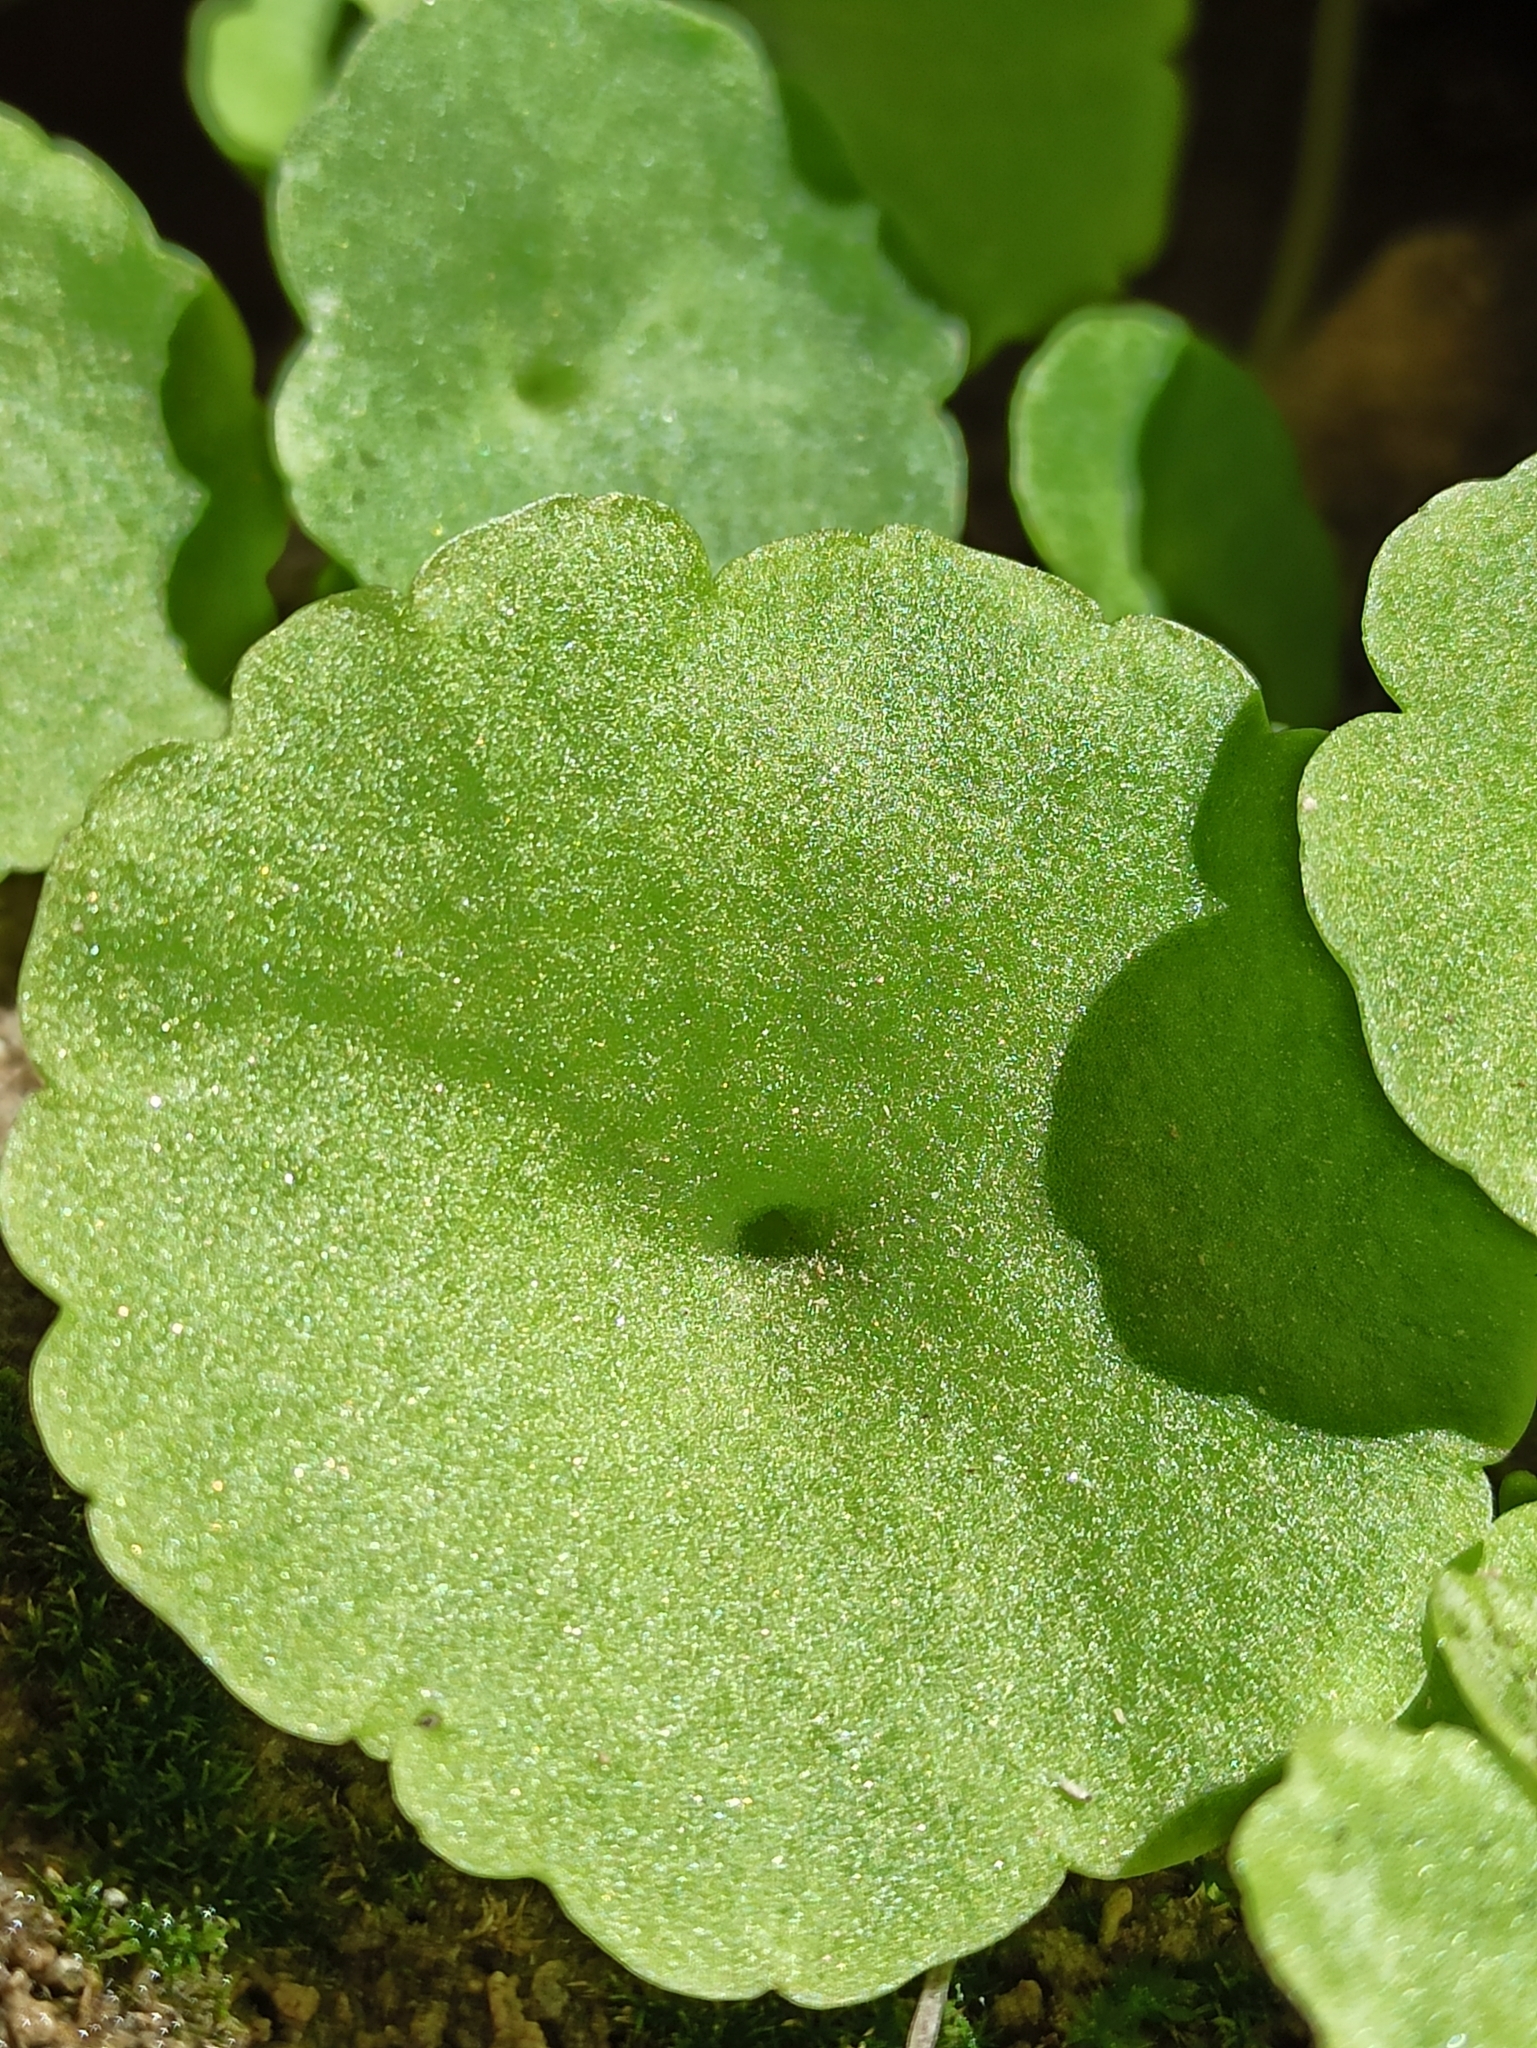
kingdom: Plantae
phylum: Tracheophyta
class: Magnoliopsida
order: Saxifragales
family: Crassulaceae
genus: Umbilicus
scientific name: Umbilicus rupestris
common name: Navelwort
